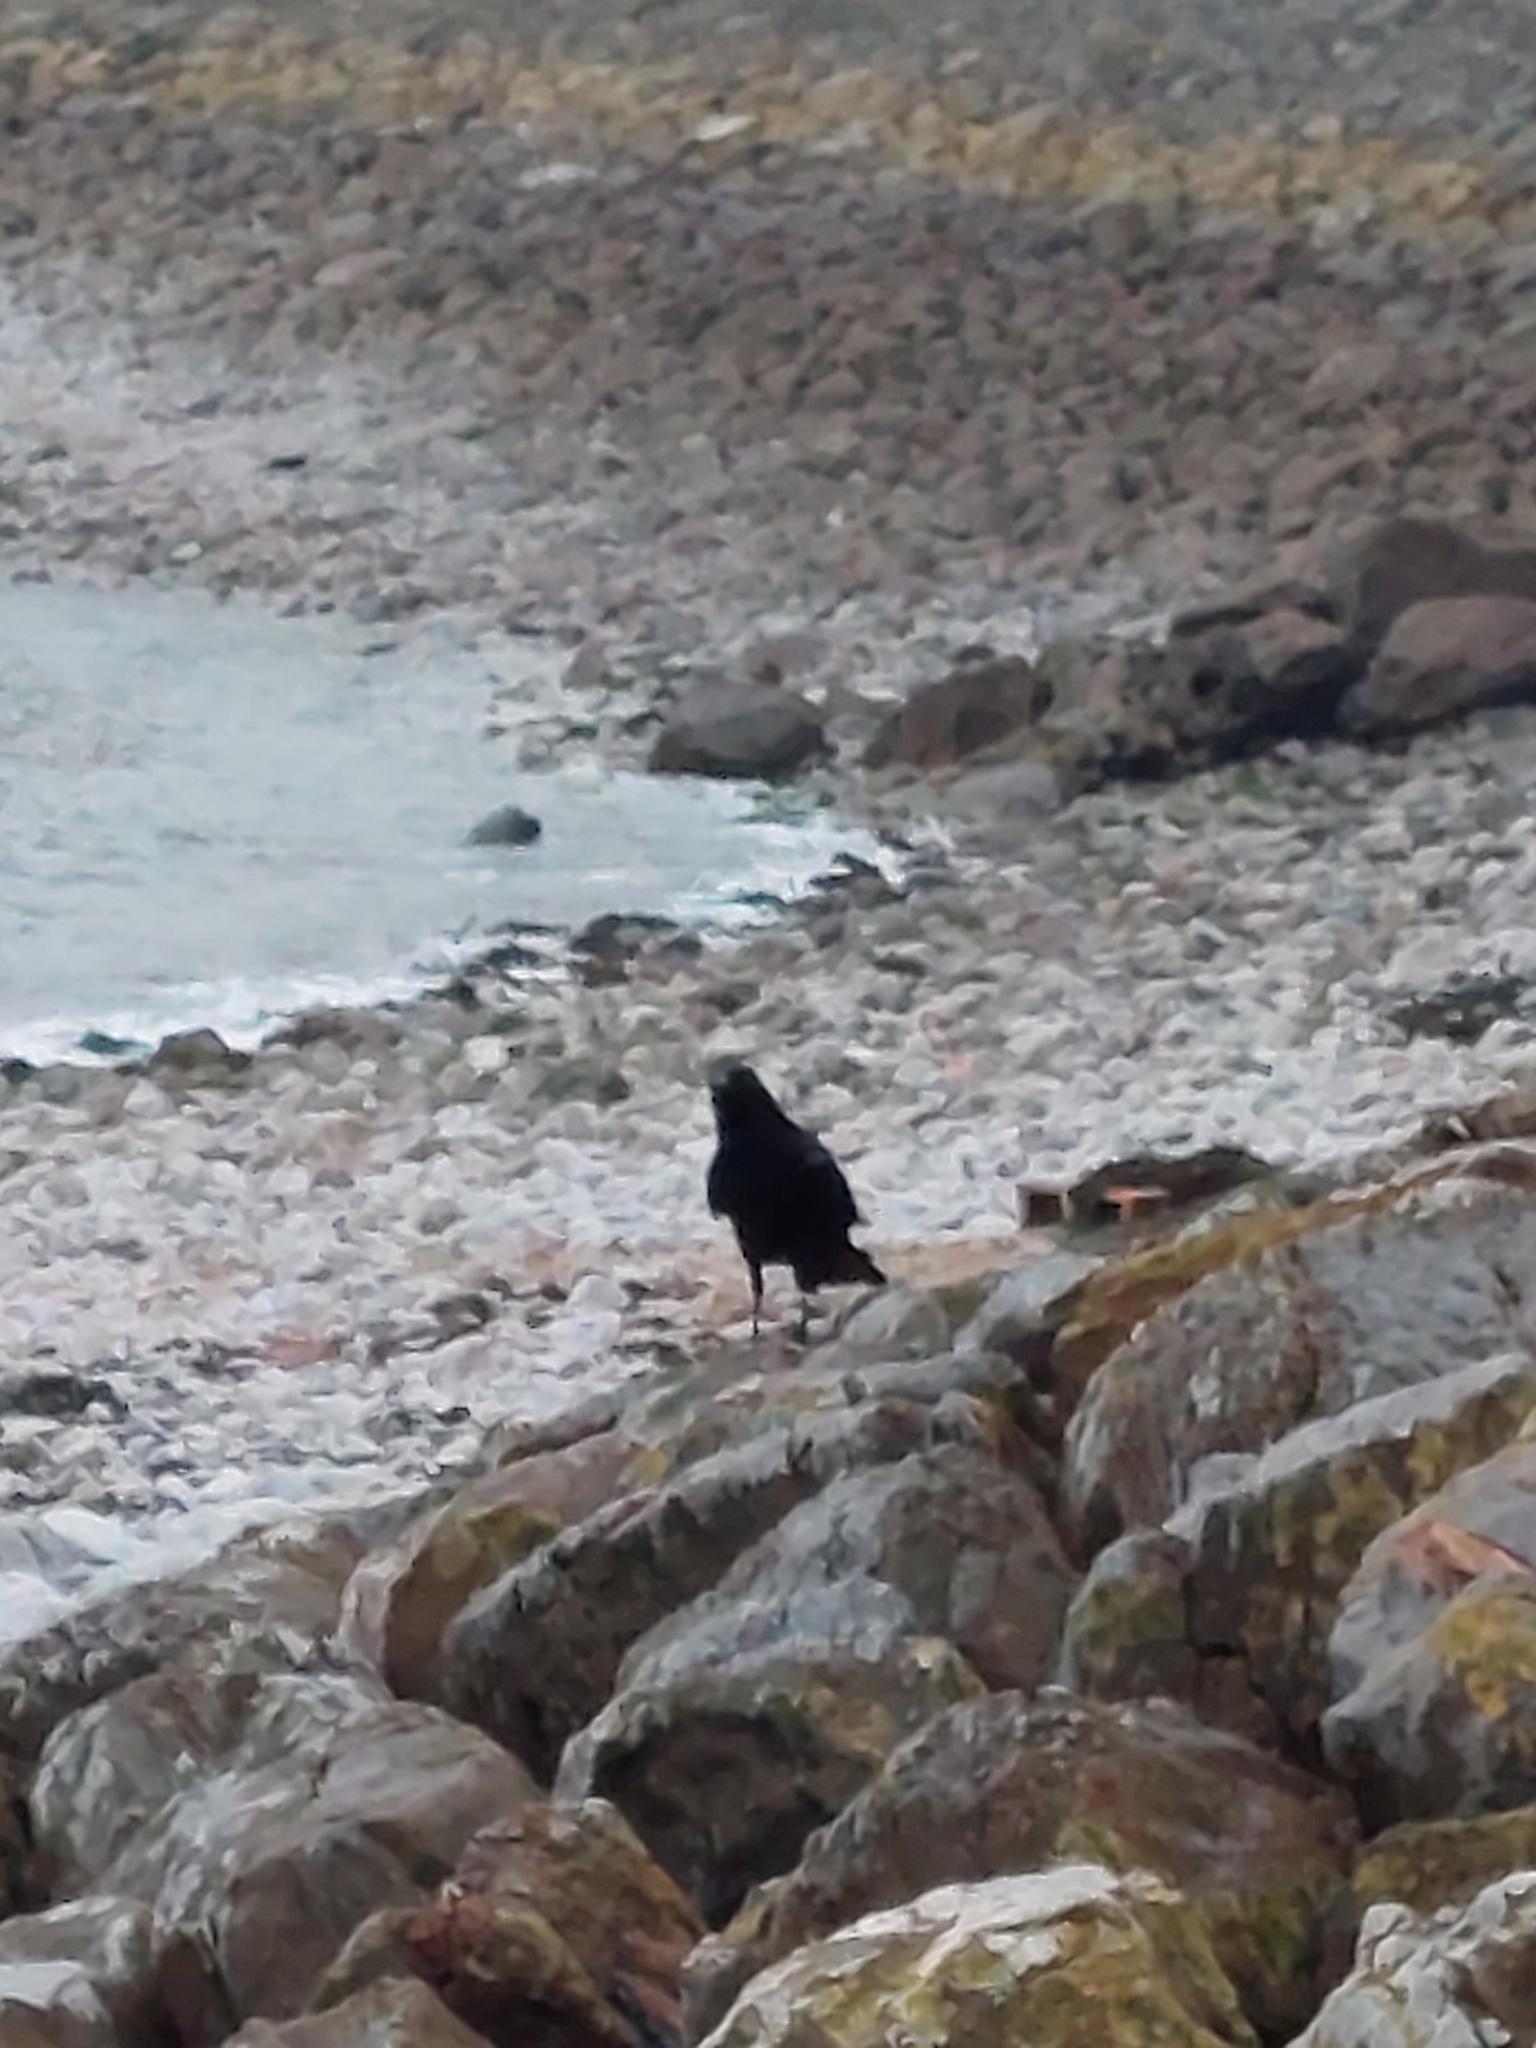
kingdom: Animalia
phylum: Chordata
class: Aves
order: Passeriformes
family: Corvidae
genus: Corvus
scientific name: Corvus corone
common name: Carrion crow
